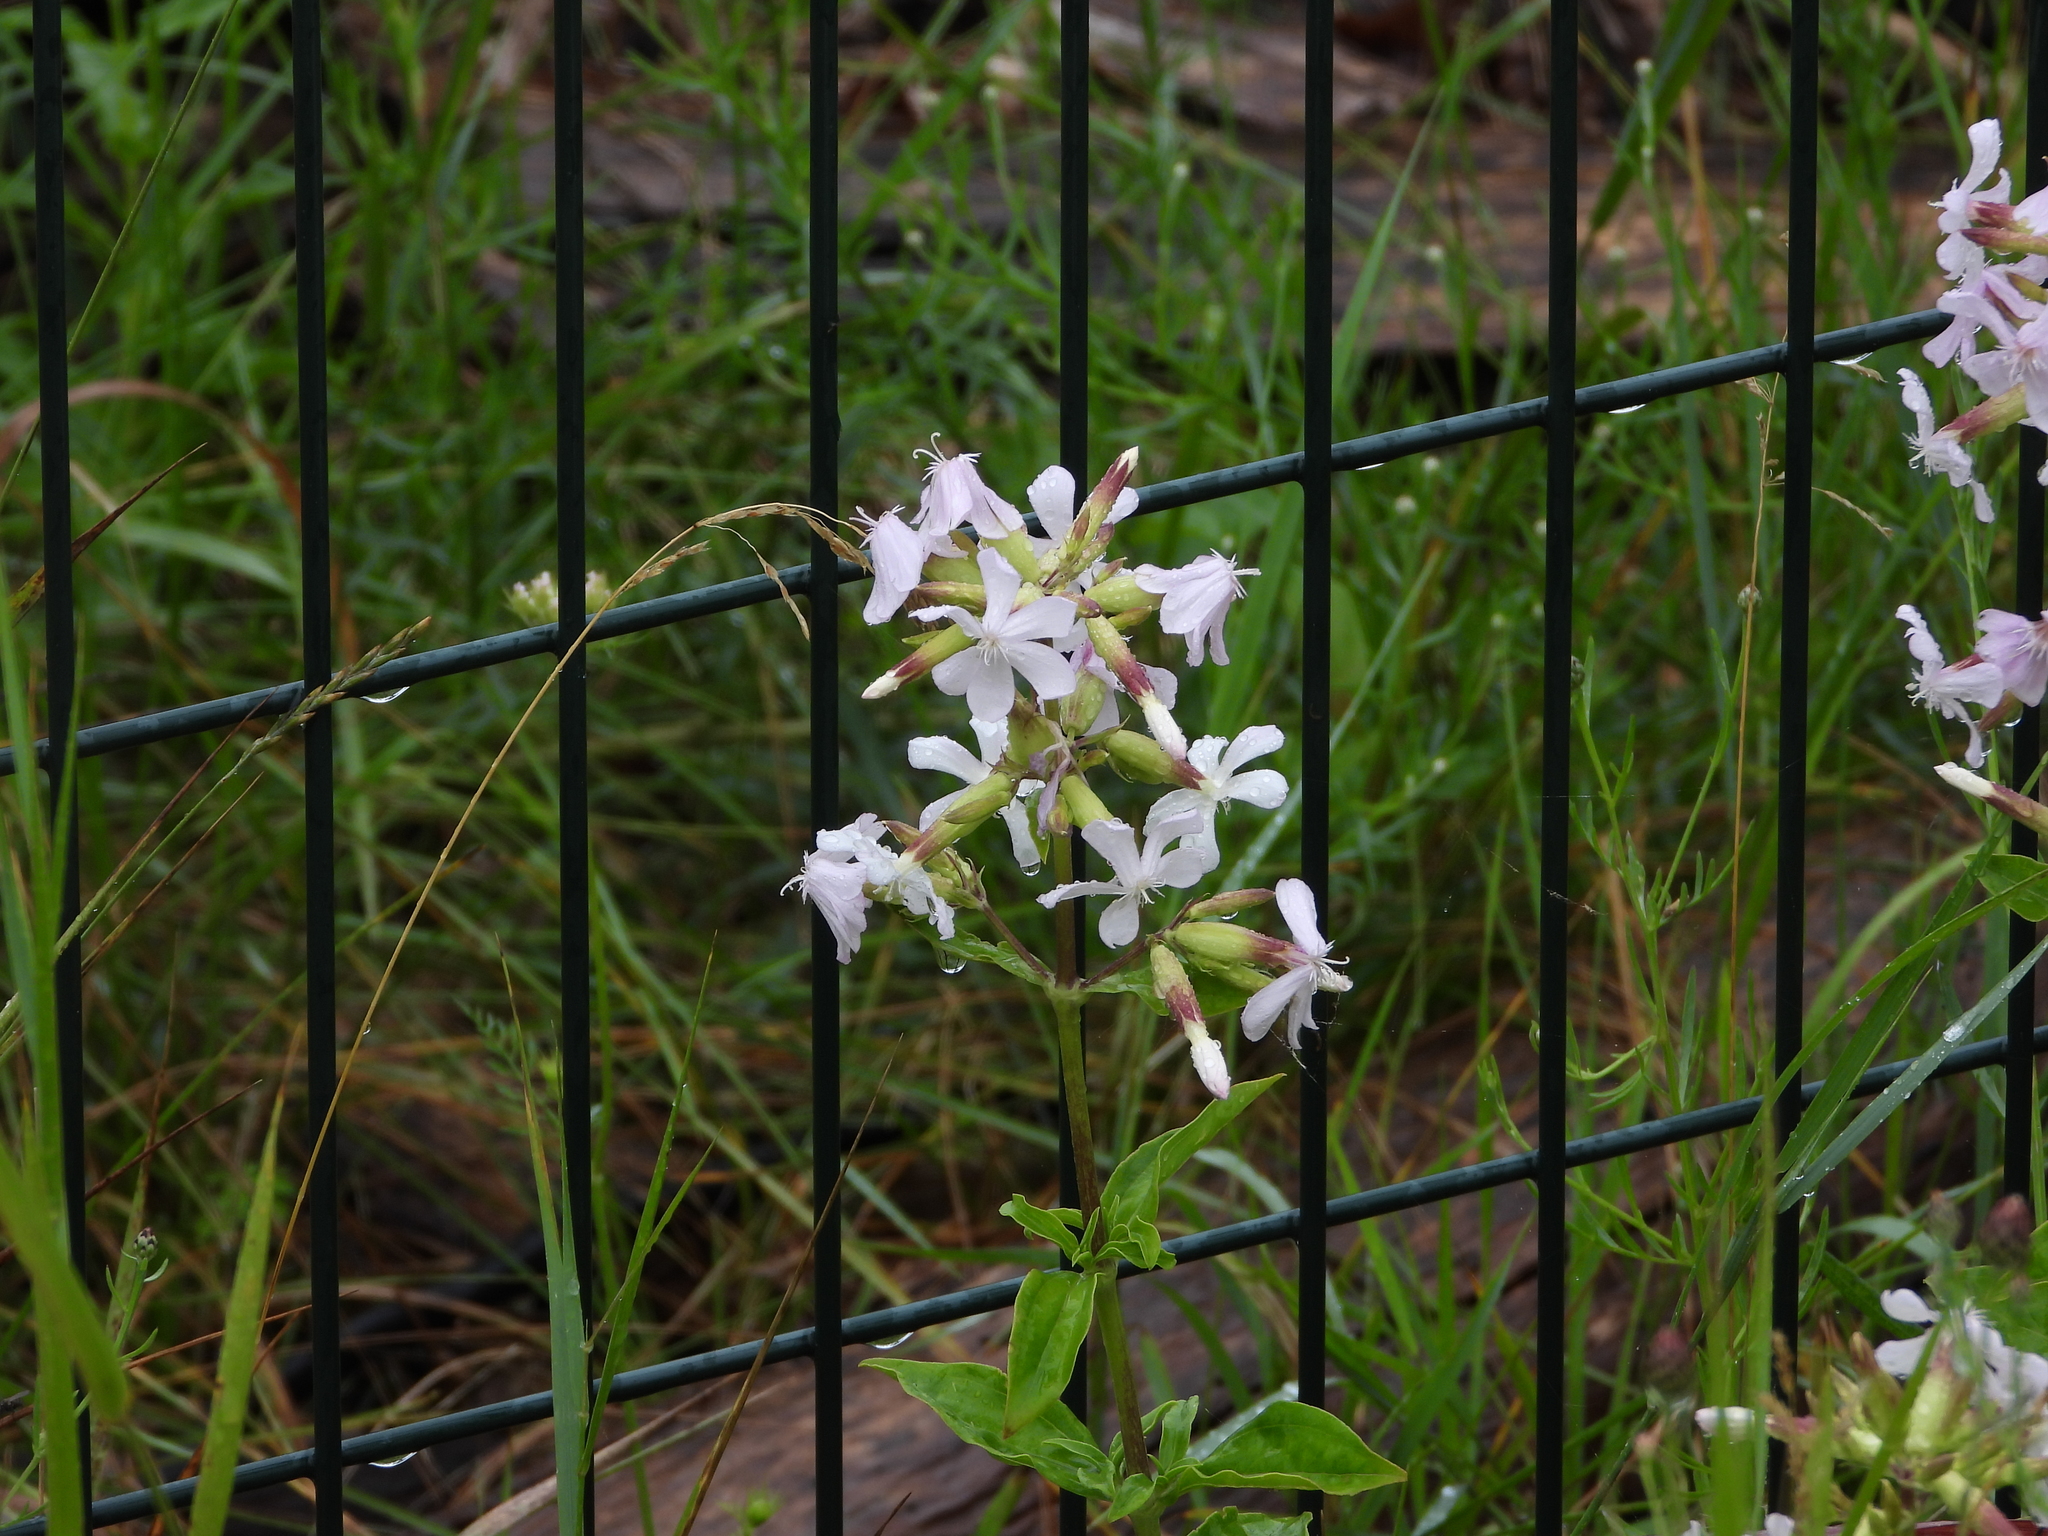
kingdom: Plantae
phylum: Tracheophyta
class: Magnoliopsida
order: Caryophyllales
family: Caryophyllaceae
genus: Saponaria
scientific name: Saponaria officinalis
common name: Soapwort
